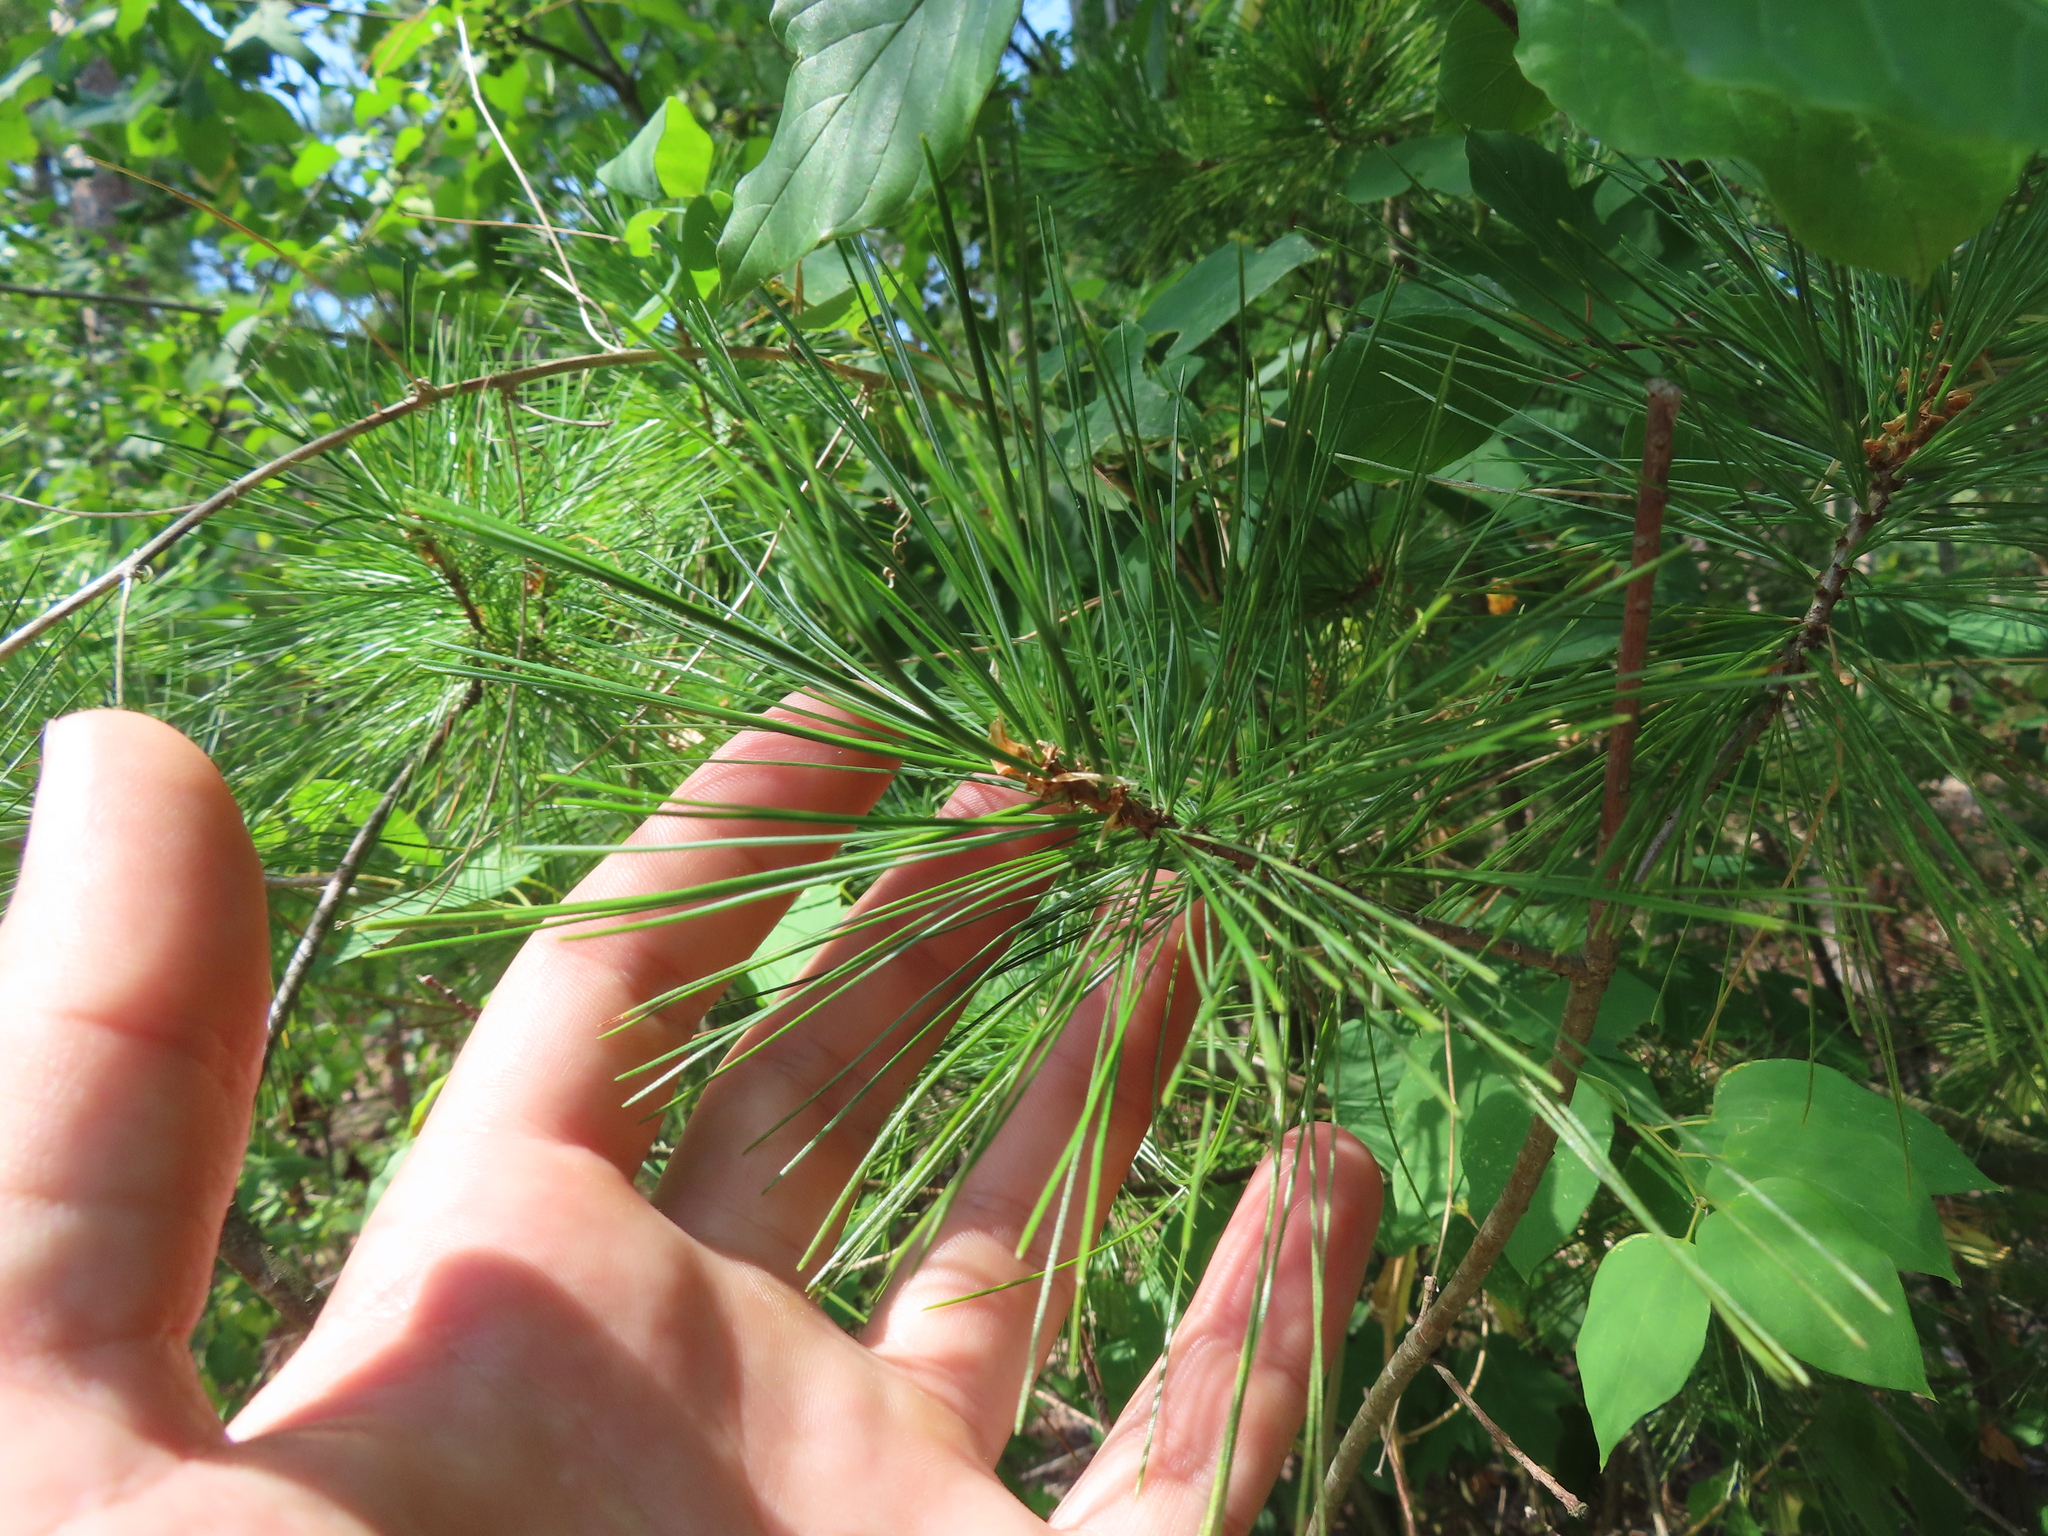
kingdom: Plantae
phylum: Tracheophyta
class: Pinopsida
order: Pinales
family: Pinaceae
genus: Pinus
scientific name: Pinus strobus
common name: Weymouth pine
